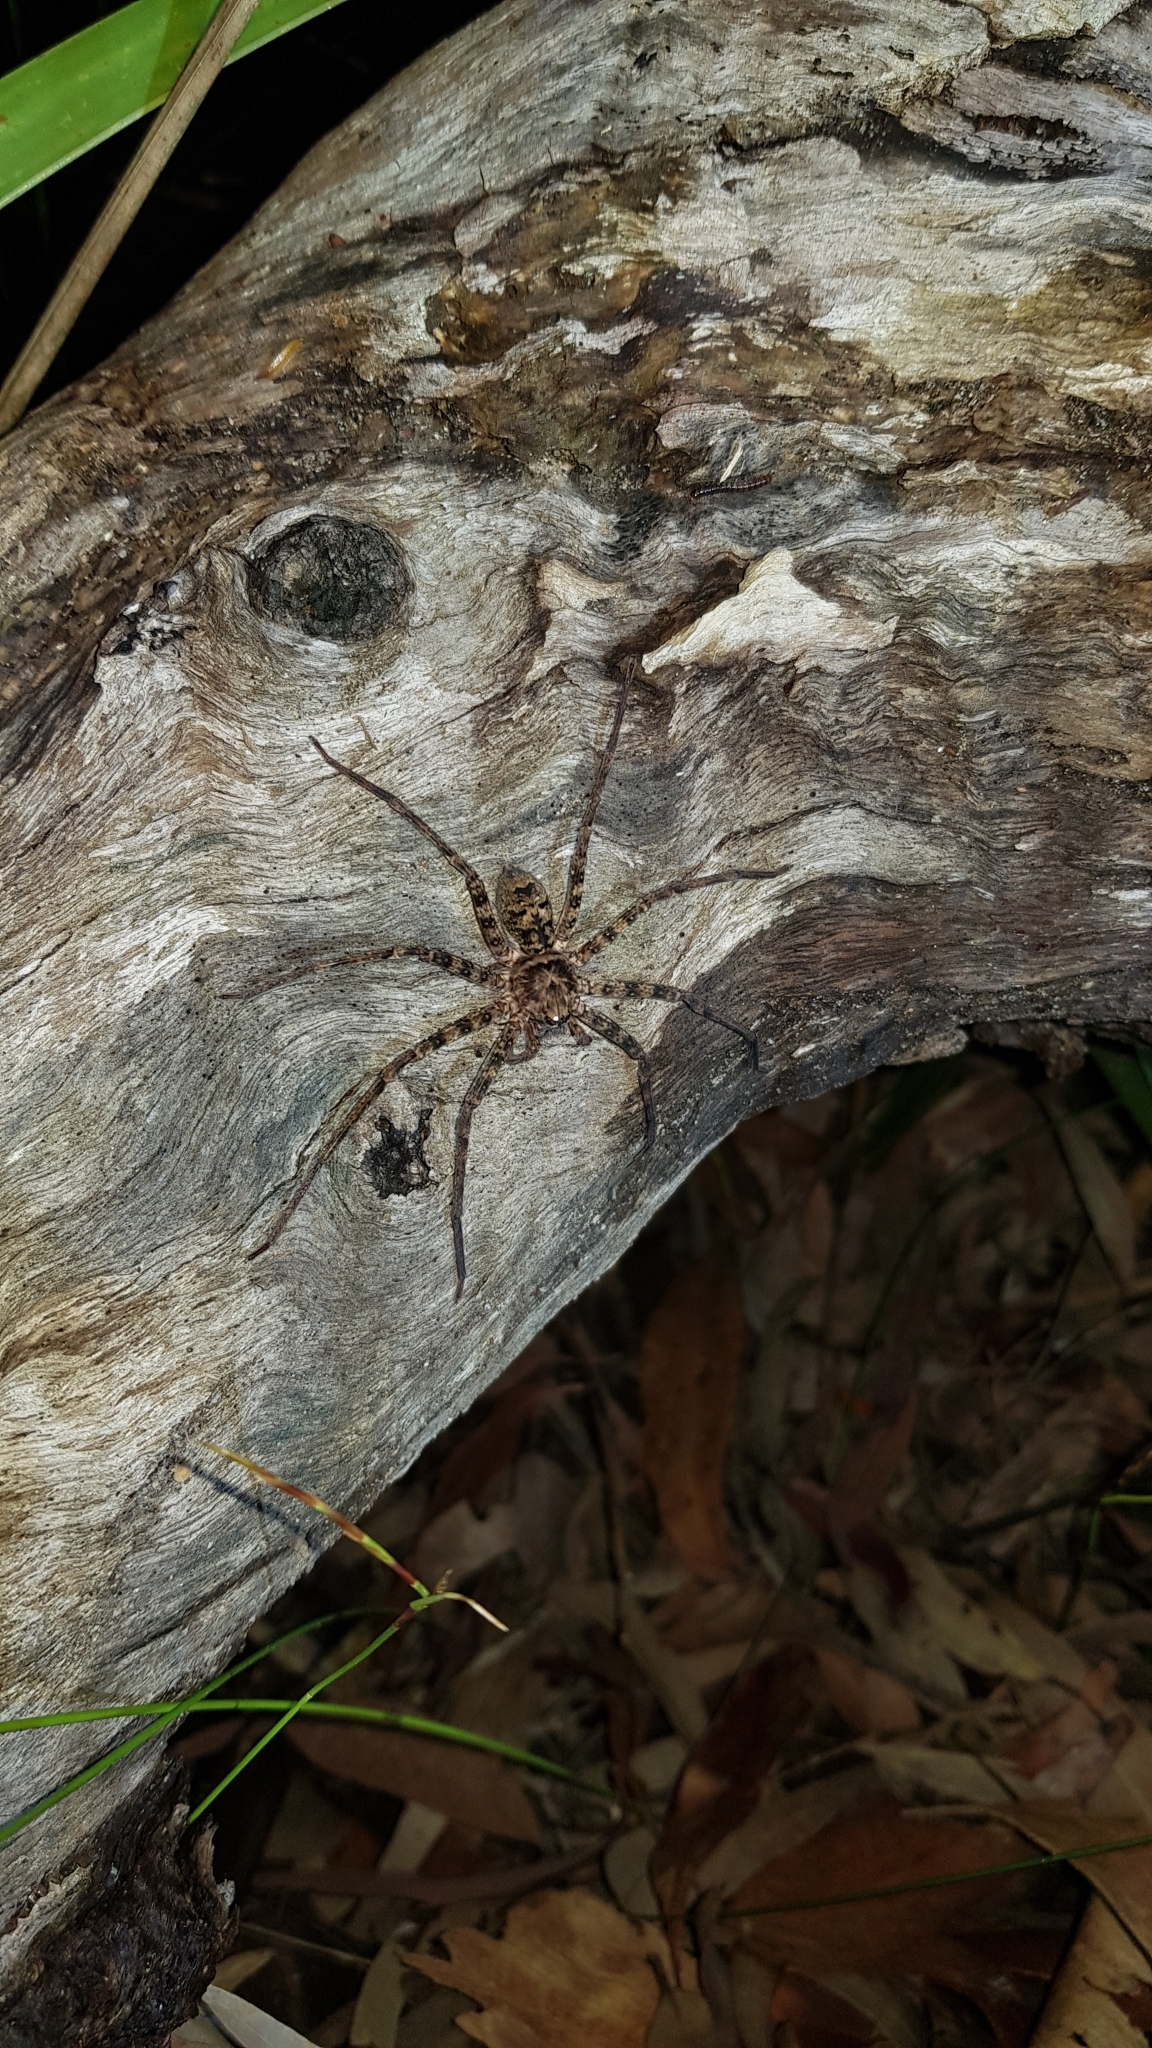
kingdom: Animalia
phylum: Arthropoda
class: Arachnida
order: Araneae
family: Sparassidae
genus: Heteropoda
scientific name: Heteropoda longipes
